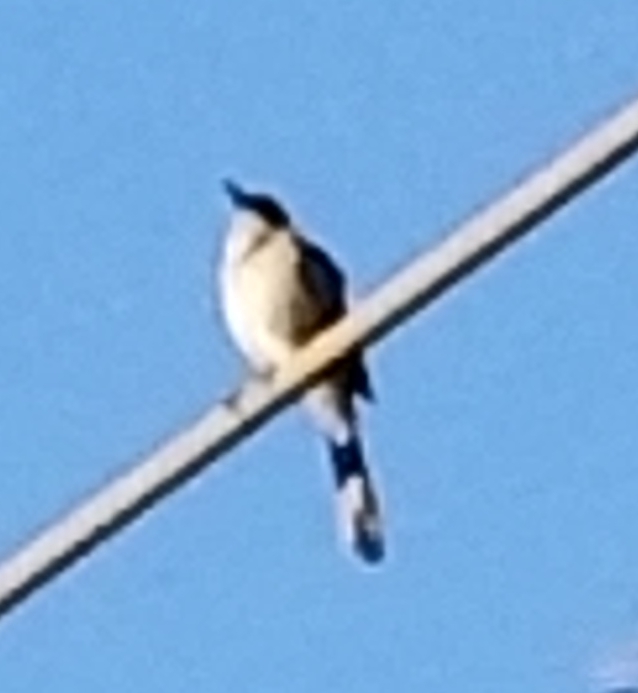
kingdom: Animalia
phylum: Chordata
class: Aves
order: Passeriformes
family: Mimidae
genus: Mimus
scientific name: Mimus polyglottos
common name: Northern mockingbird
